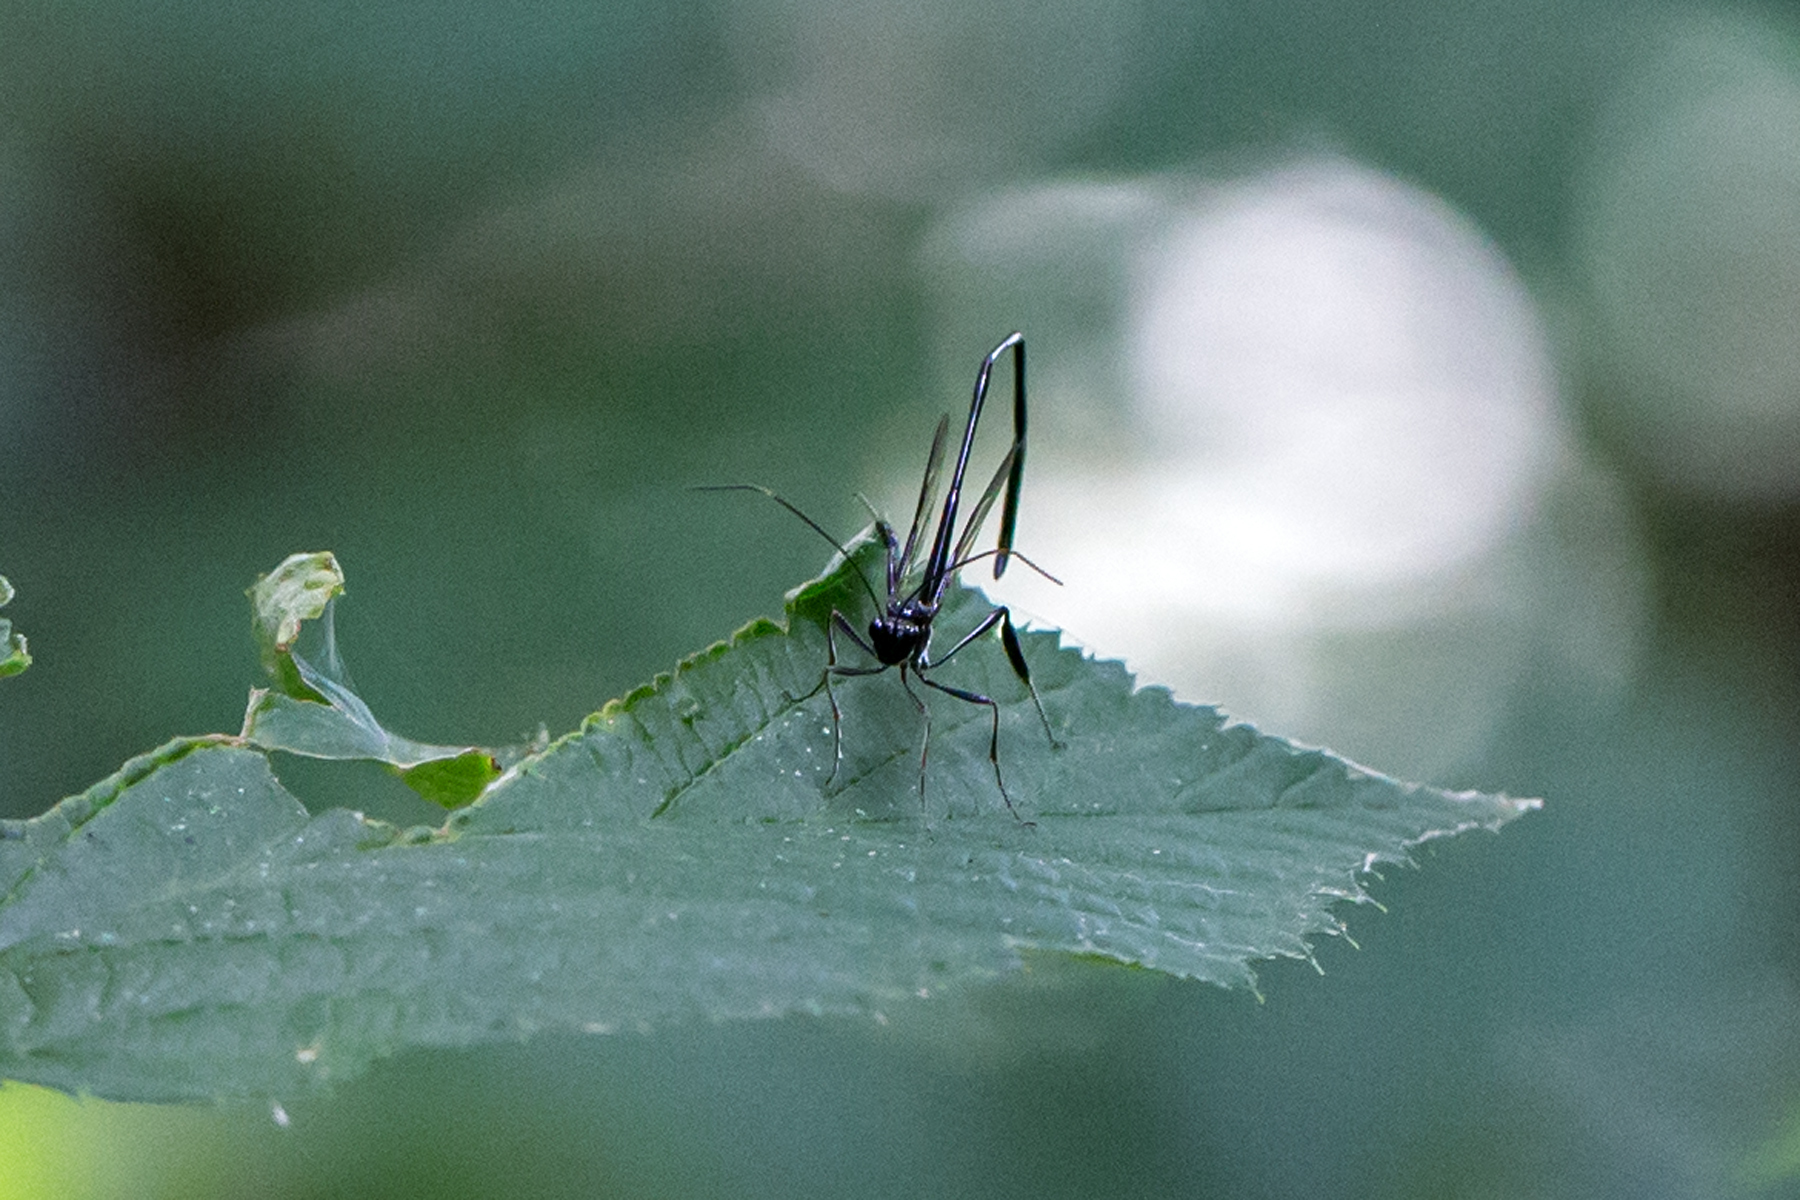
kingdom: Animalia
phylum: Arthropoda
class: Insecta
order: Hymenoptera
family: Pelecinidae
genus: Pelecinus
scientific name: Pelecinus polyturator
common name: American pelecinid wasp
